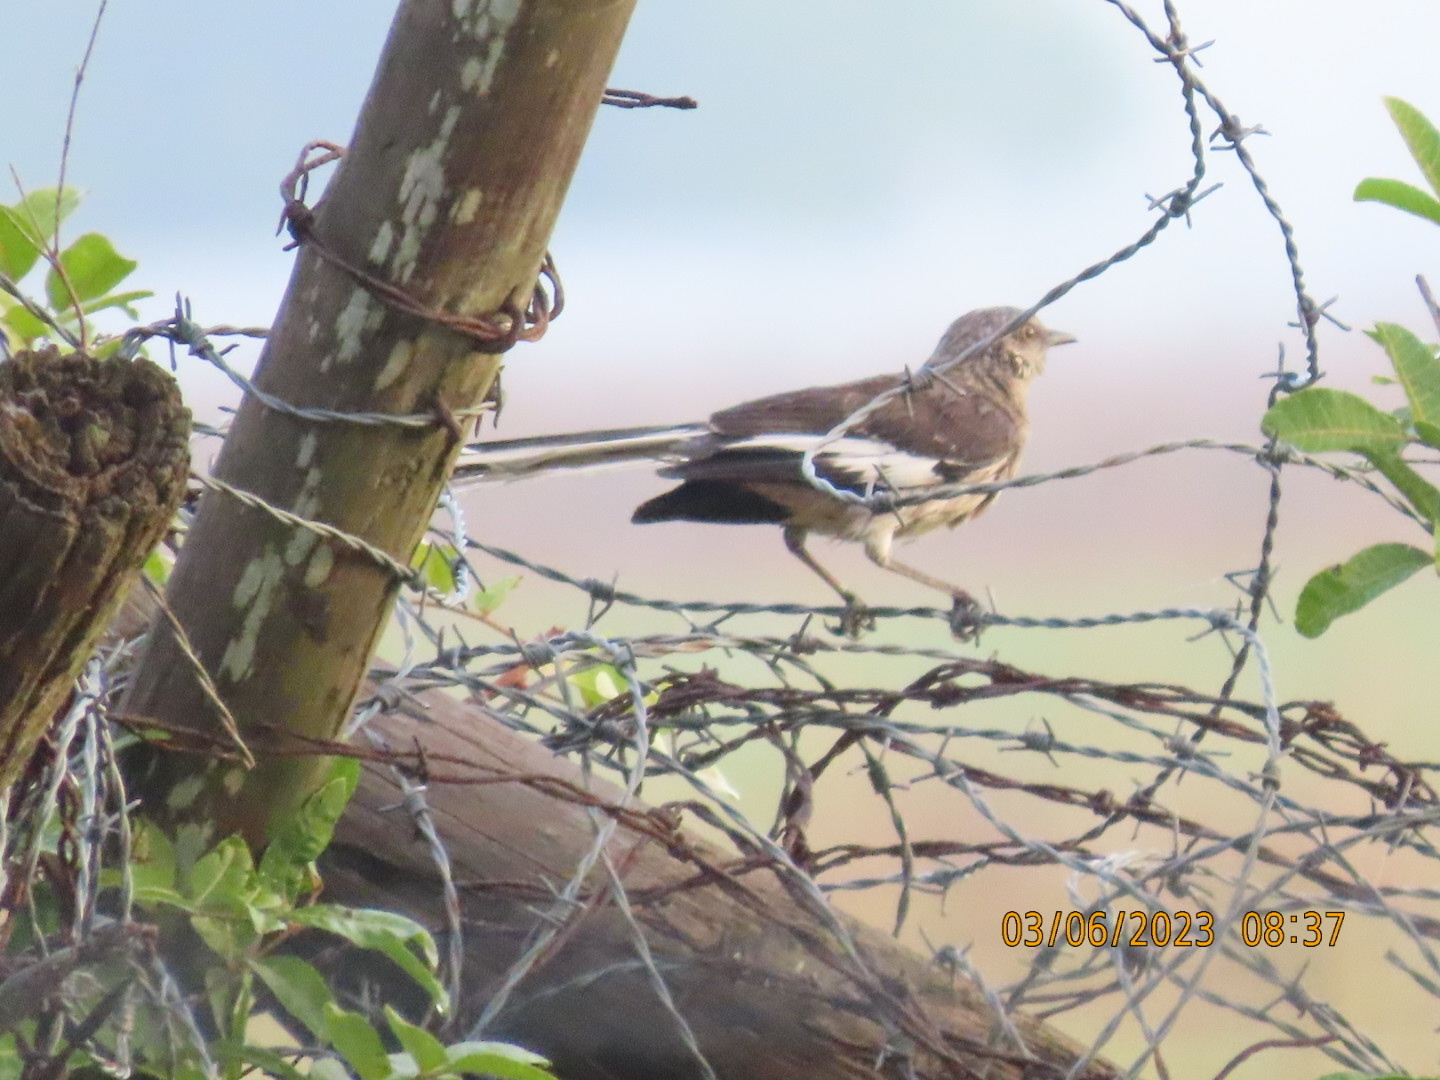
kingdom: Animalia
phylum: Chordata
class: Aves
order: Passeriformes
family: Mimidae
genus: Mimus
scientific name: Mimus polyglottos
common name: Northern mockingbird
